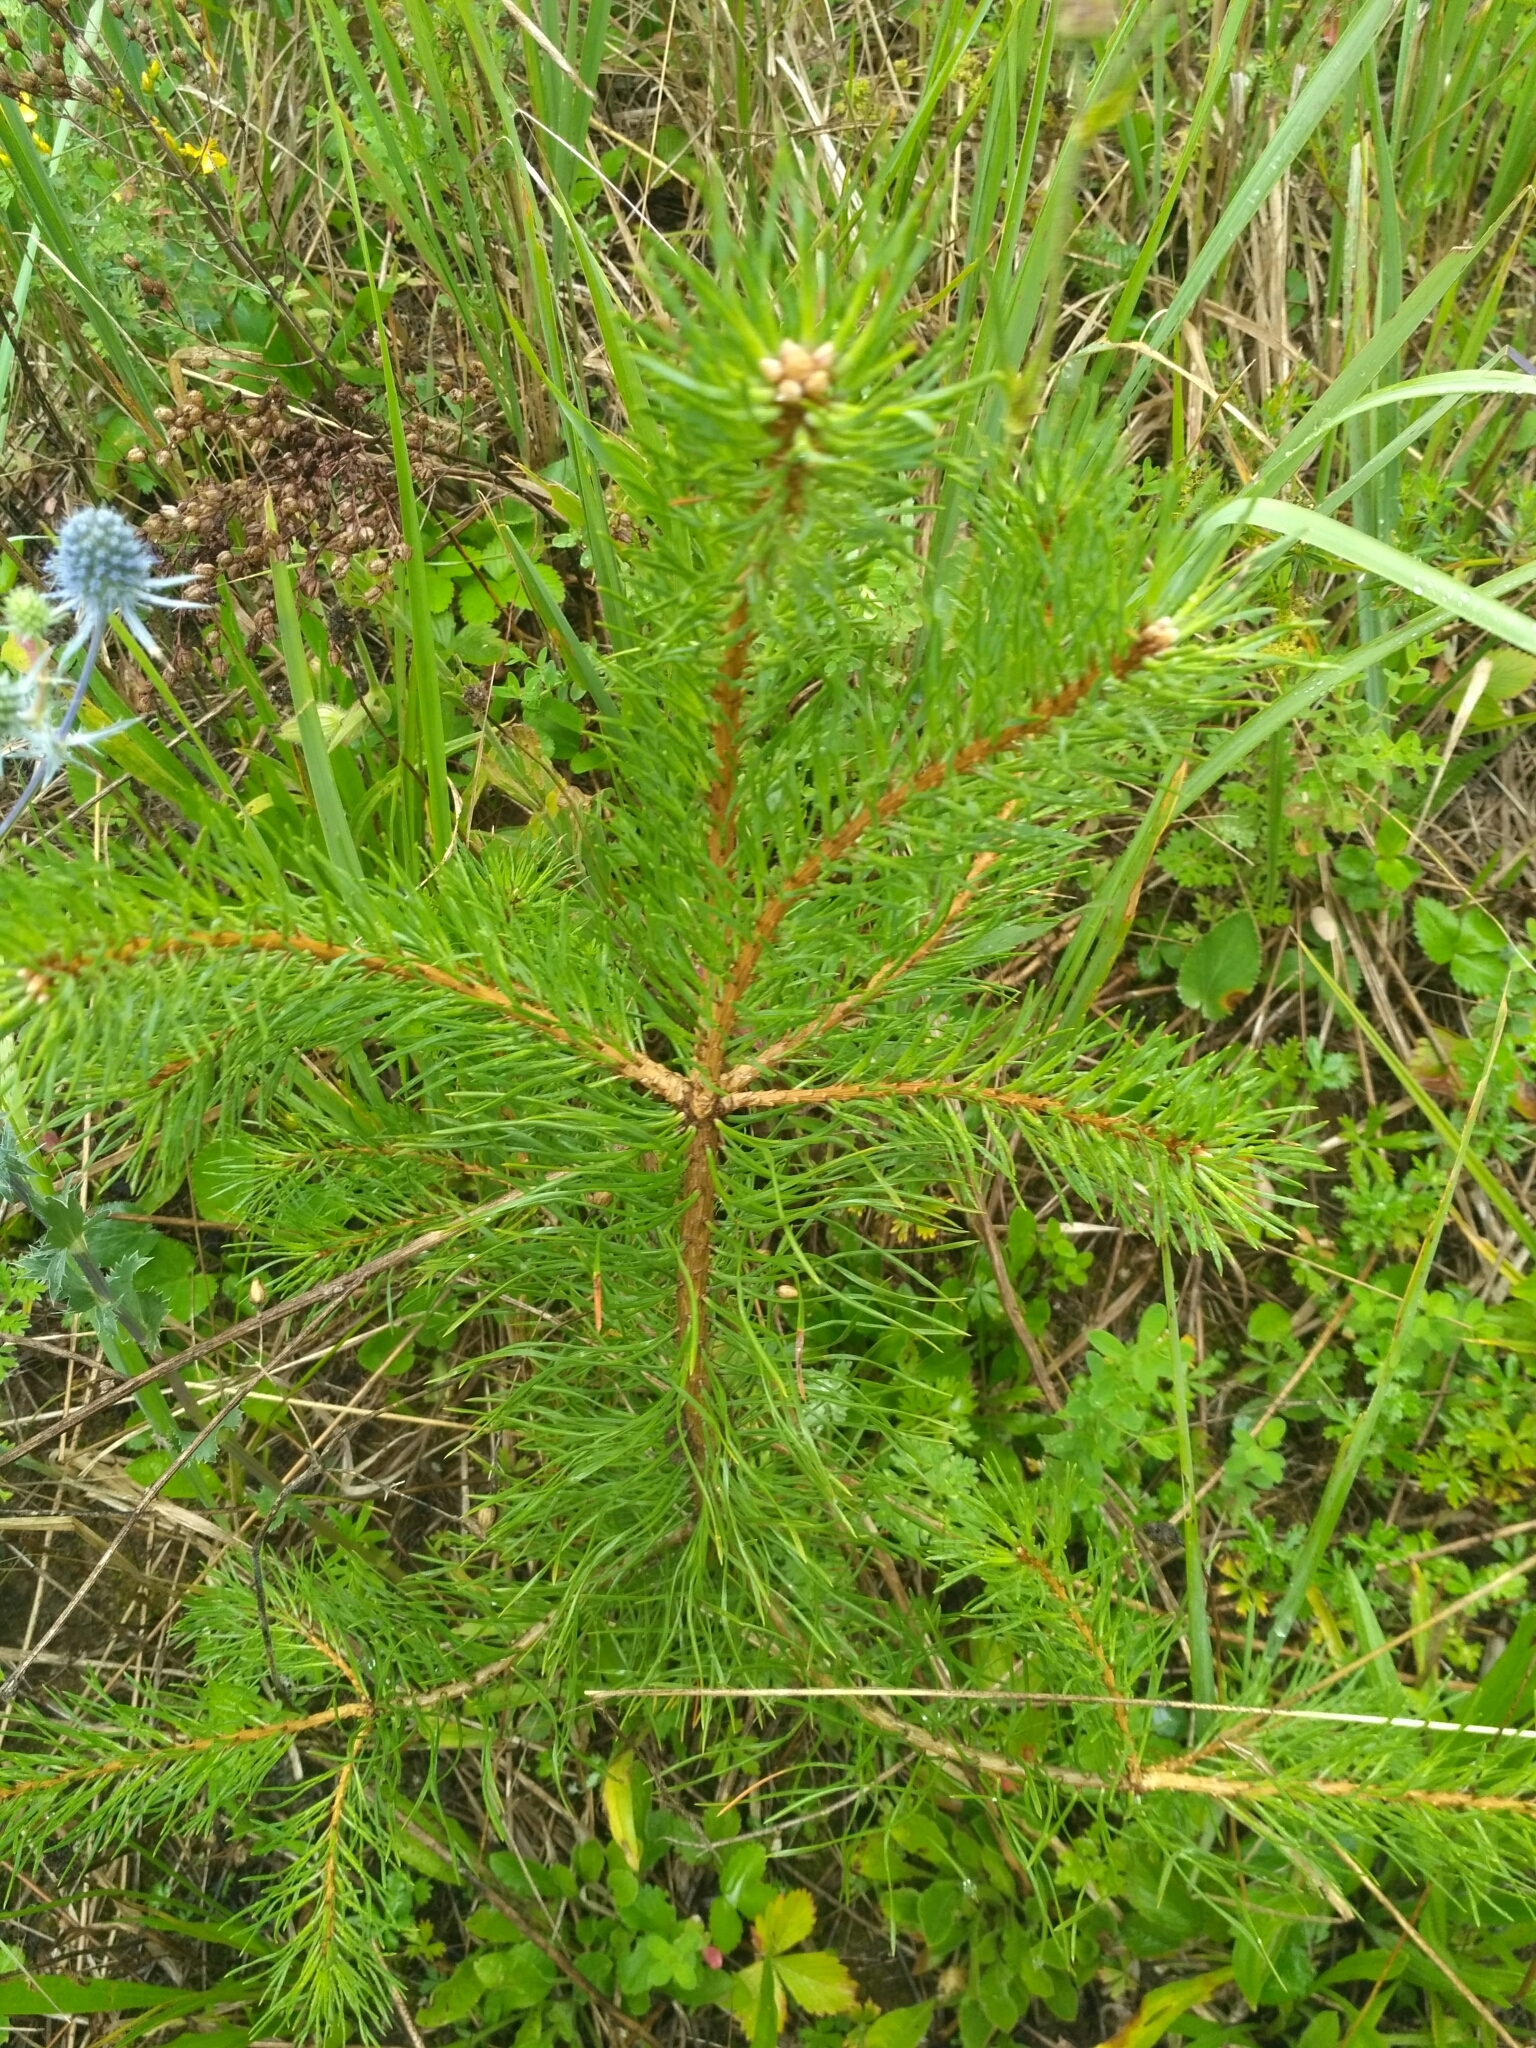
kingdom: Plantae
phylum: Tracheophyta
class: Pinopsida
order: Pinales
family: Pinaceae
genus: Pinus
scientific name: Pinus sylvestris
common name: Scots pine
